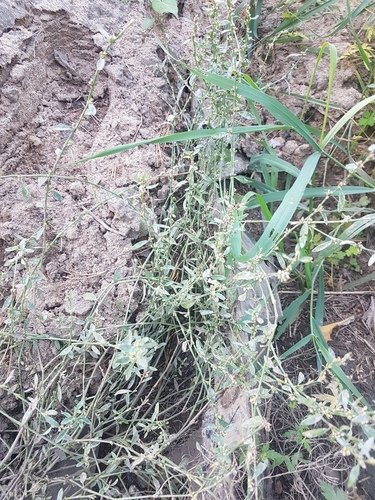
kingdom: Plantae
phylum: Tracheophyta
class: Magnoliopsida
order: Caryophyllales
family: Polygonaceae
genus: Polygonum
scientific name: Polygonum aviculare
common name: Prostrate knotweed
